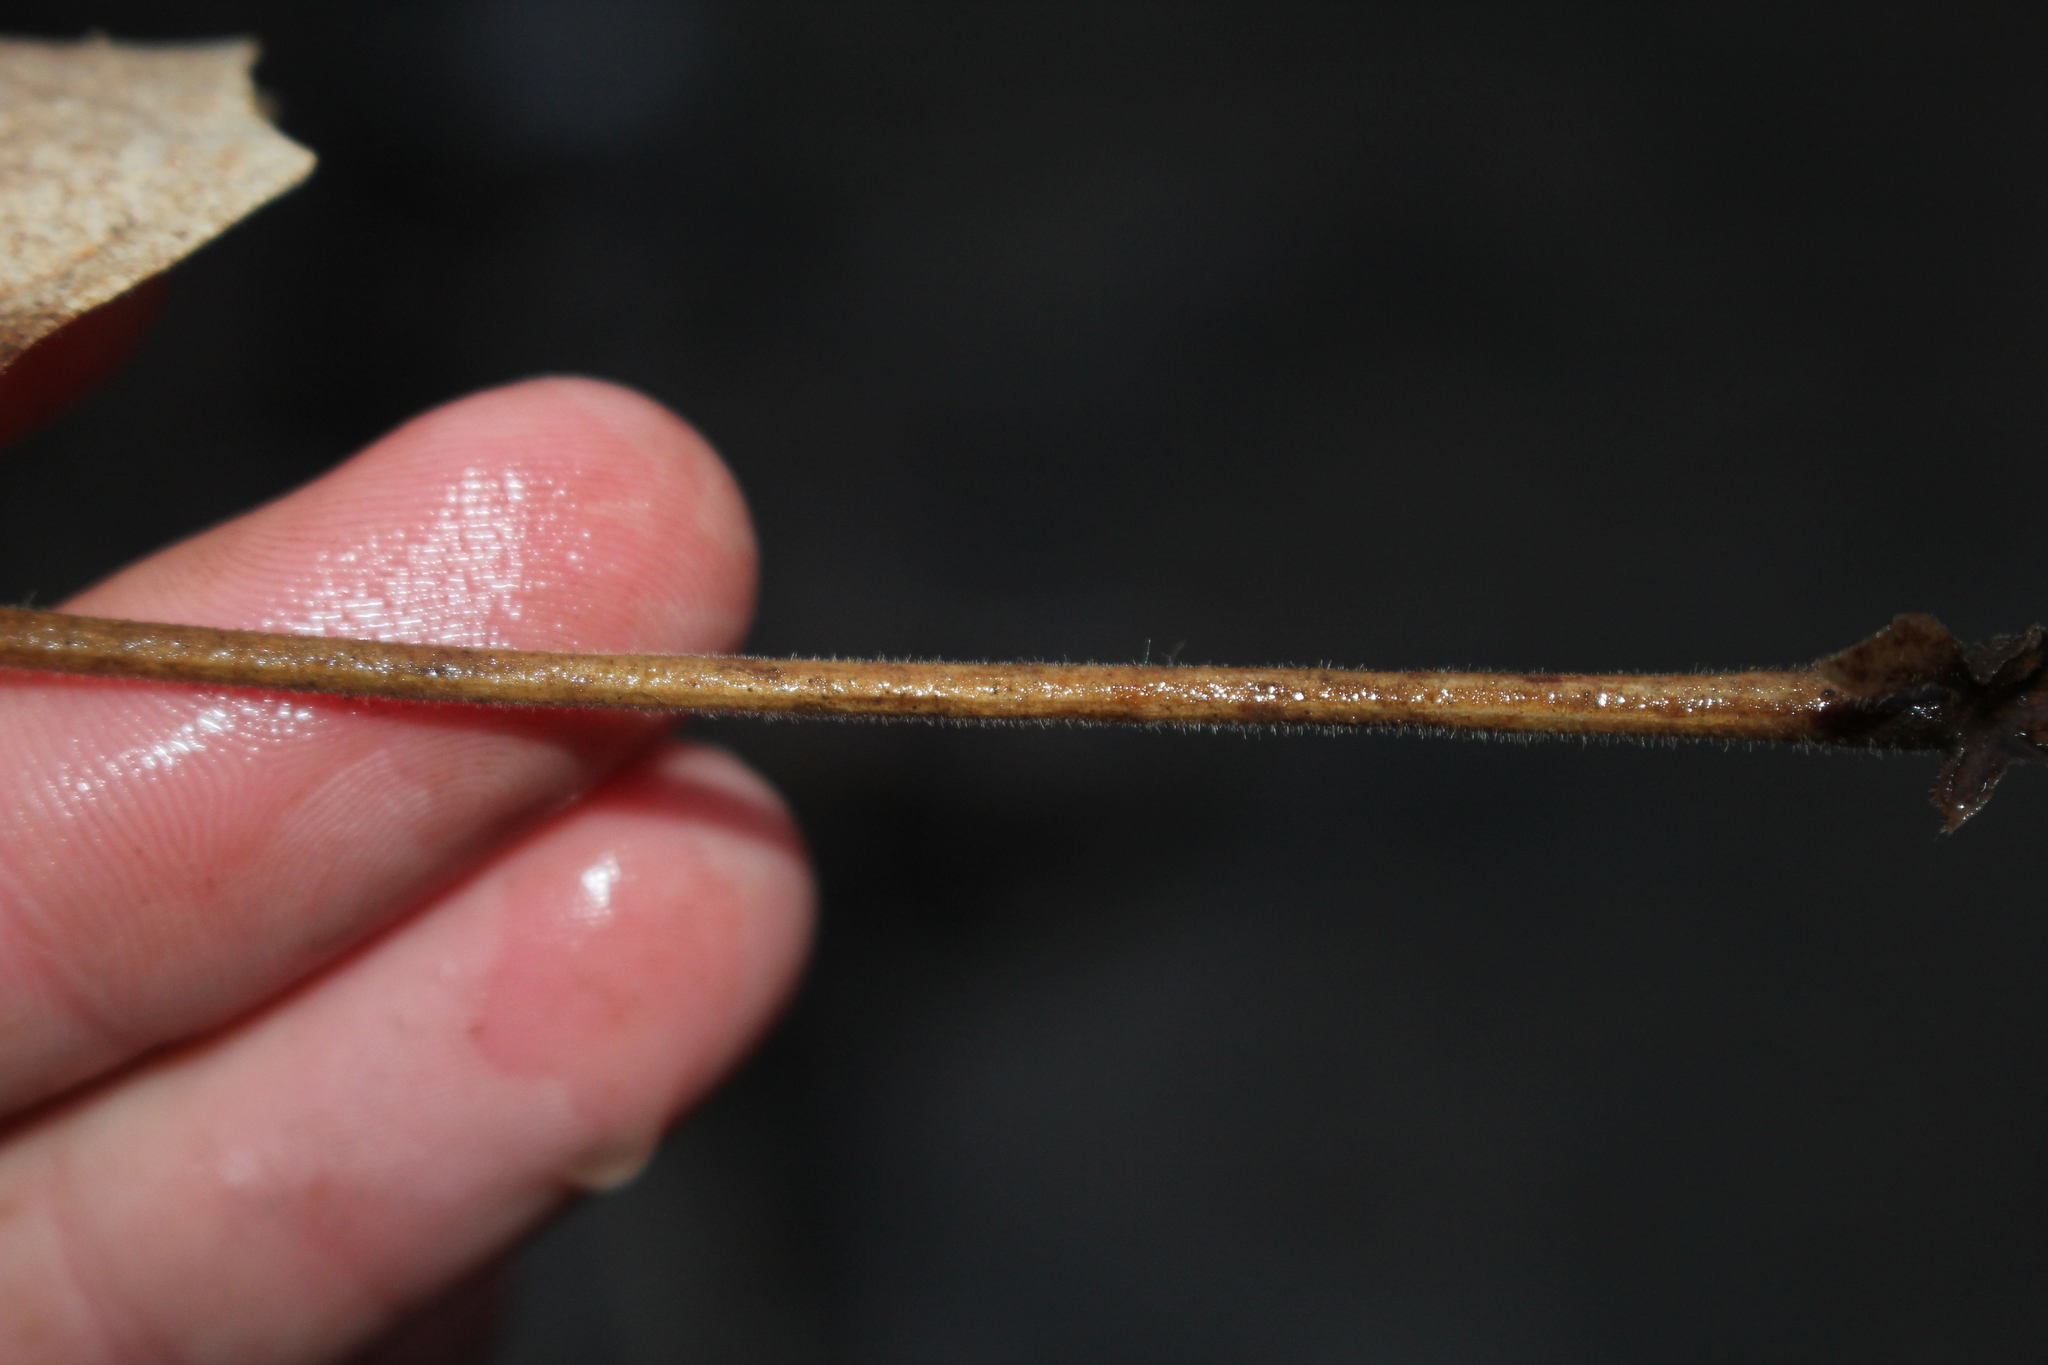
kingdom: Plantae
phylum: Tracheophyta
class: Magnoliopsida
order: Sapindales
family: Sapindaceae
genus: Acer
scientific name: Acer nigrum
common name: Black maple
